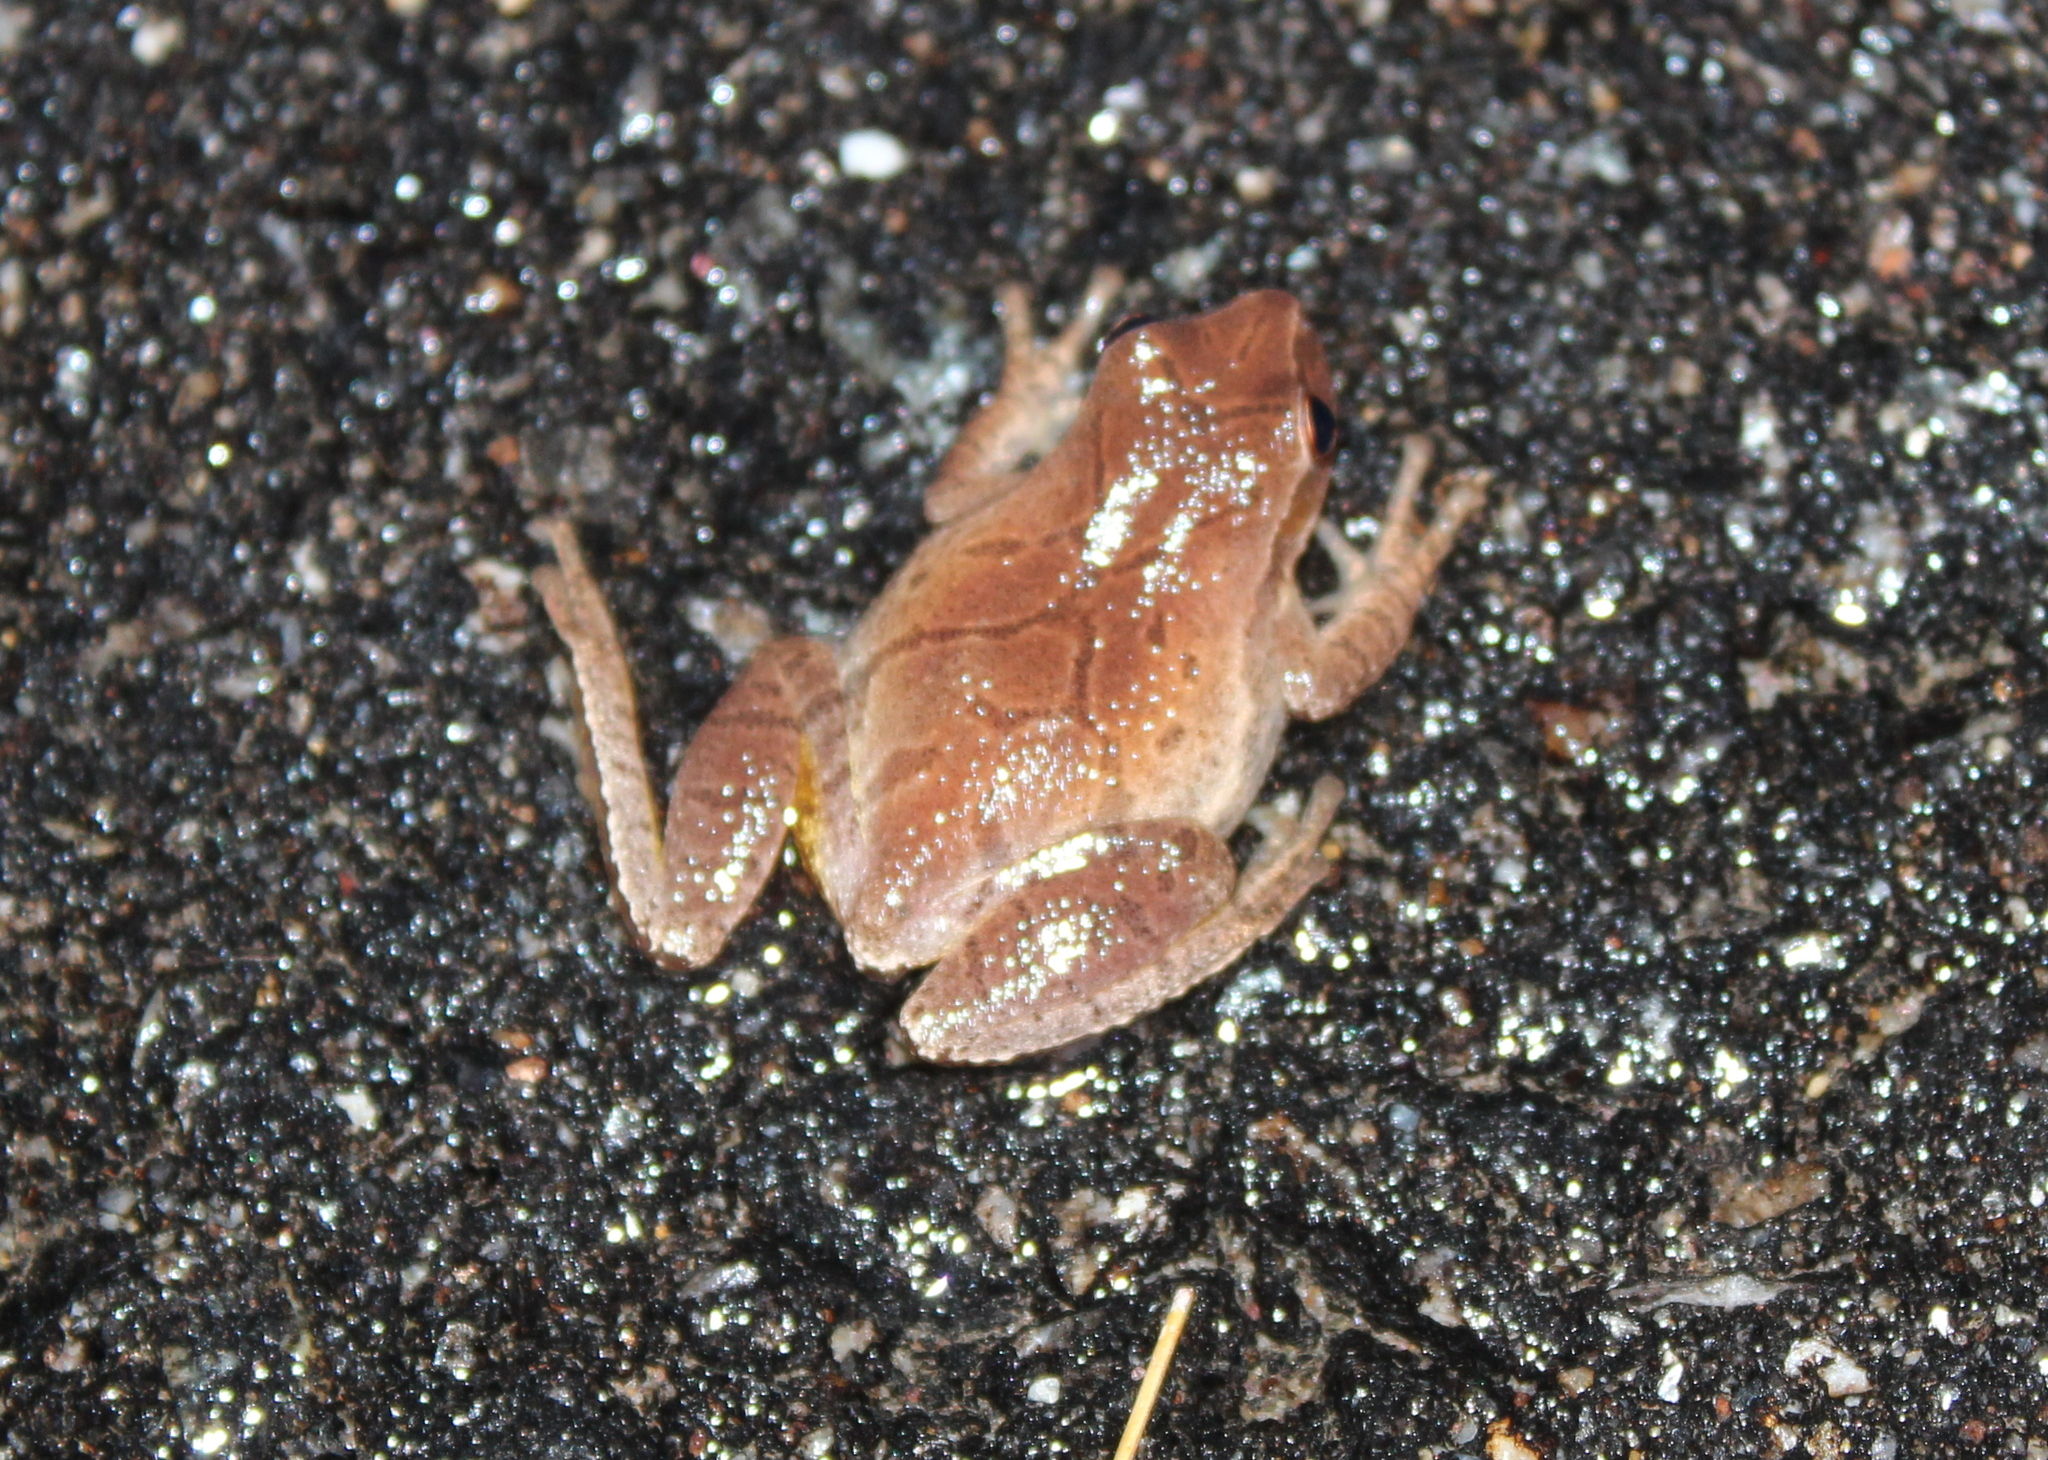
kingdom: Animalia
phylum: Chordata
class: Amphibia
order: Anura
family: Hylidae
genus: Pseudacris
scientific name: Pseudacris crucifer
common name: Spring peeper
